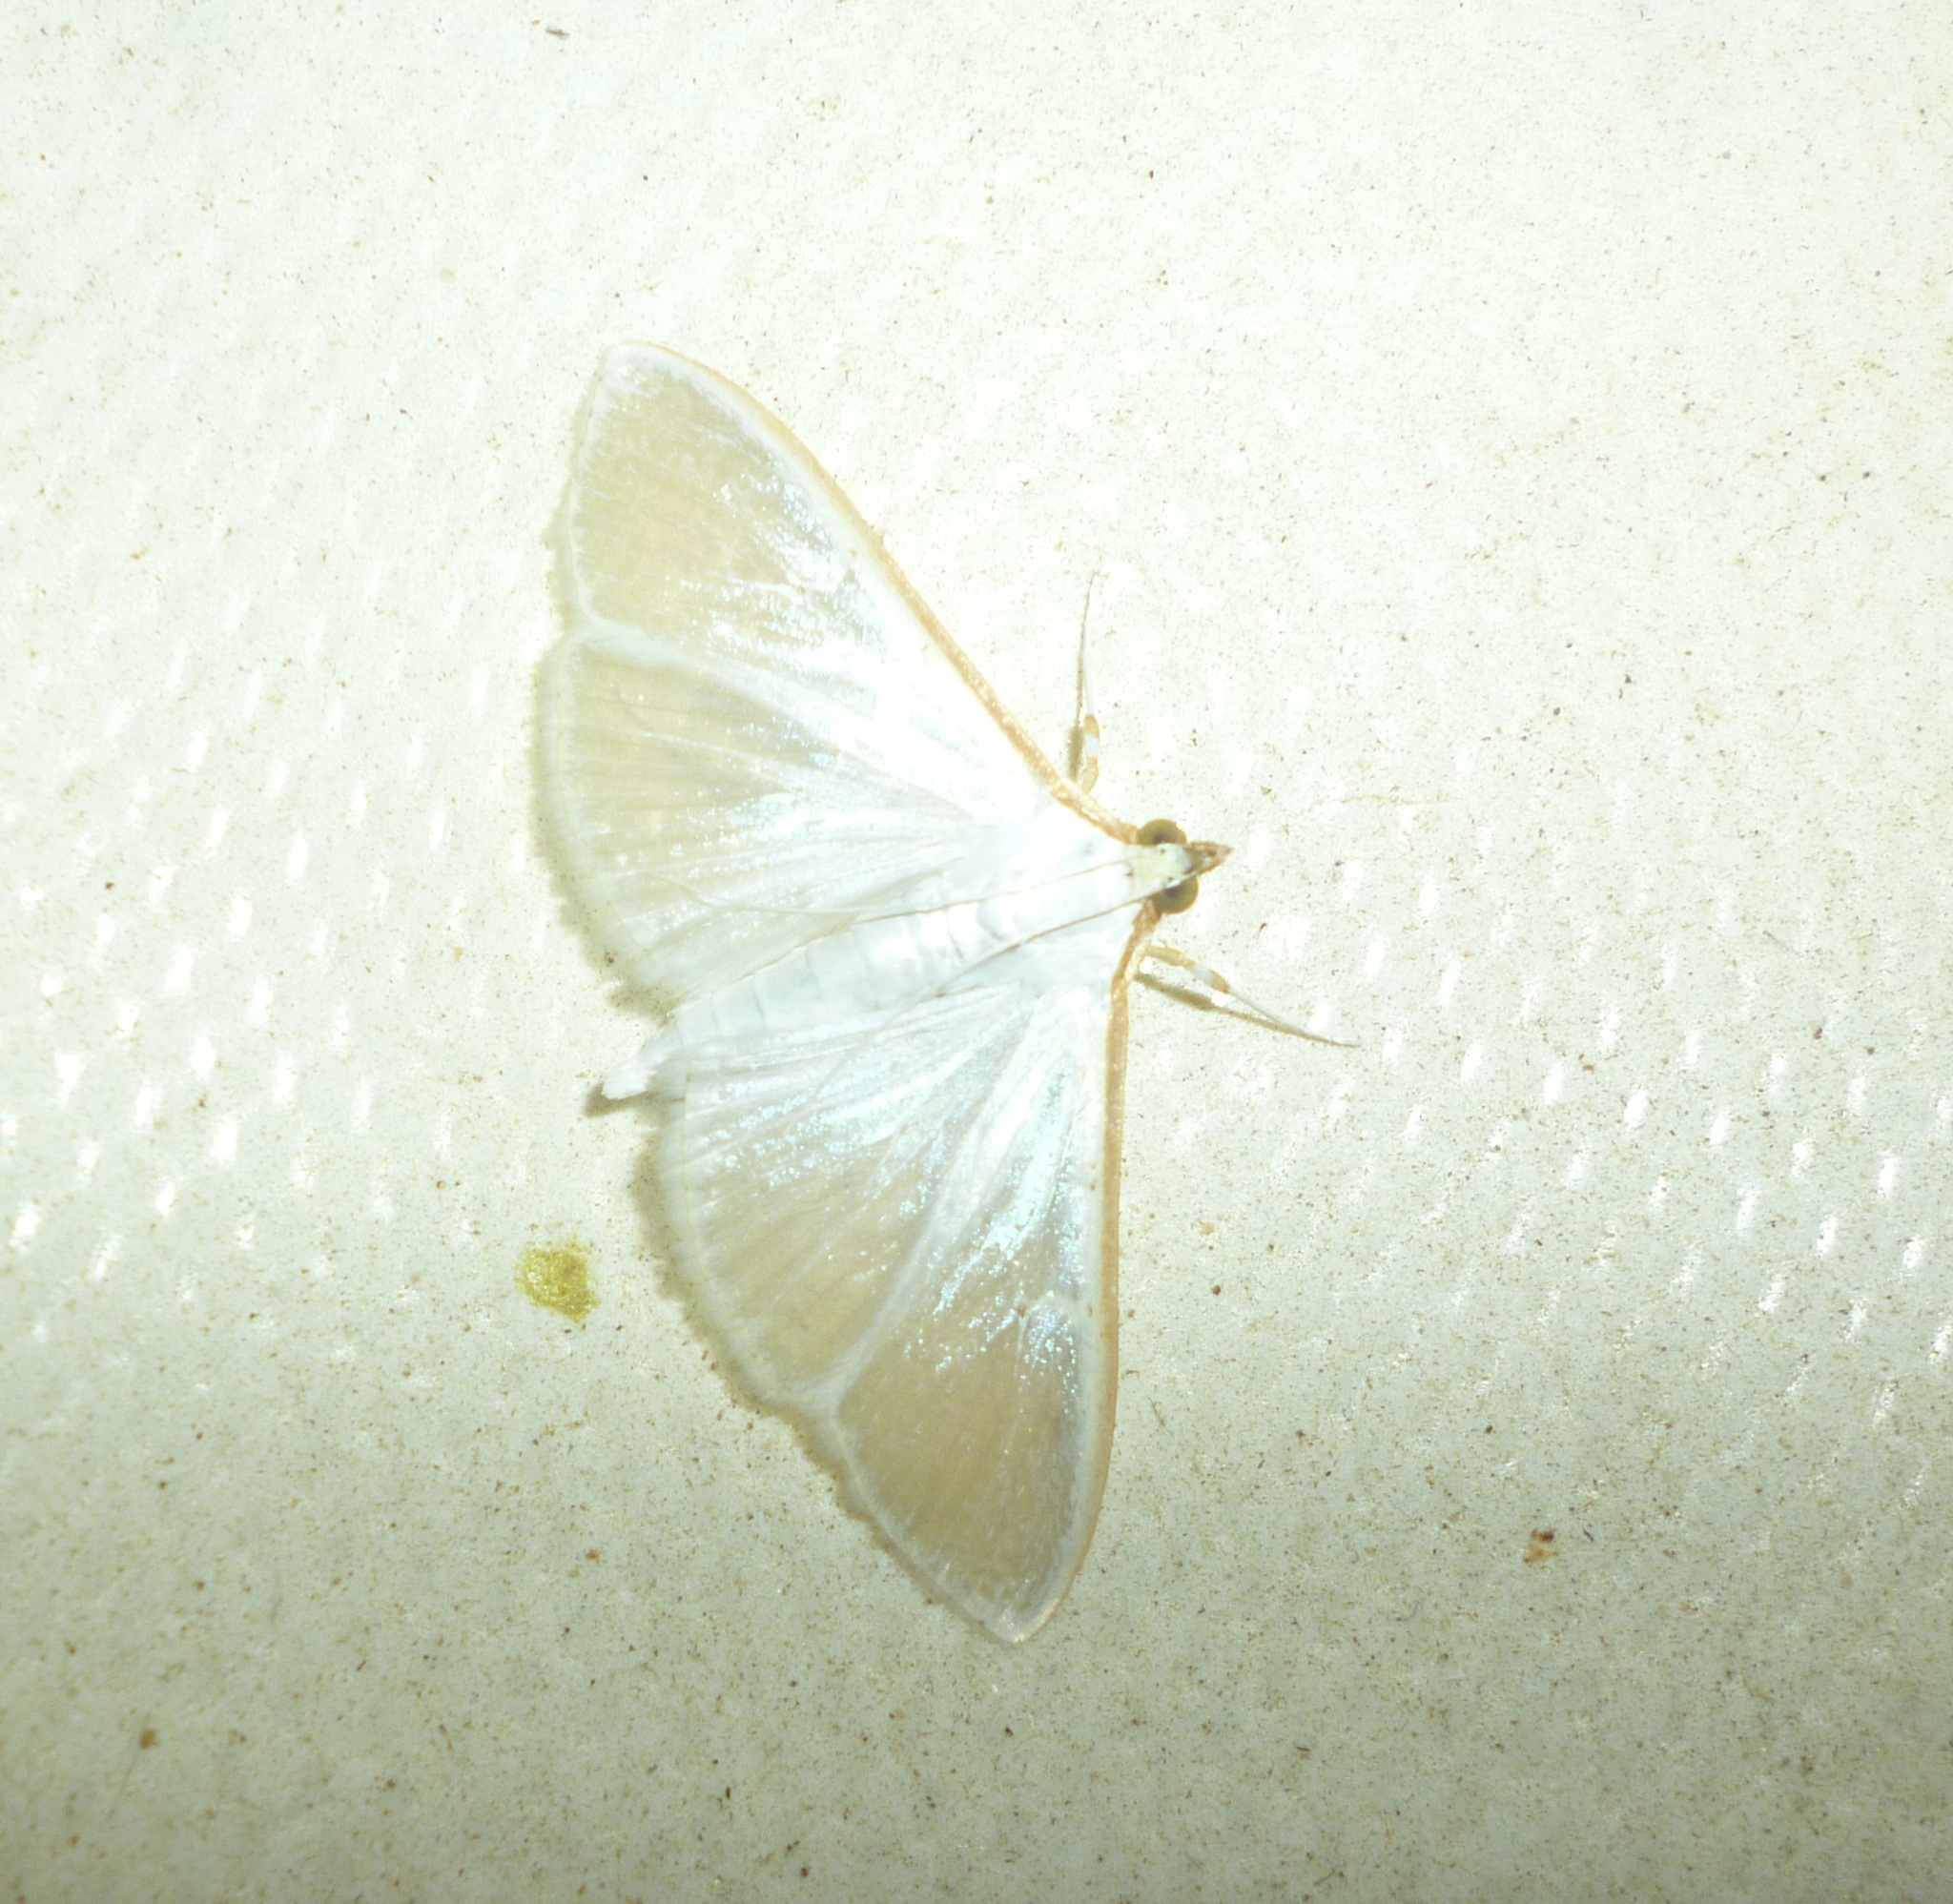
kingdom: Animalia
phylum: Arthropoda
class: Insecta
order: Lepidoptera
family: Crambidae
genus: Palpita
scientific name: Palpita vitrealis
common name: Olive-tree pearl
